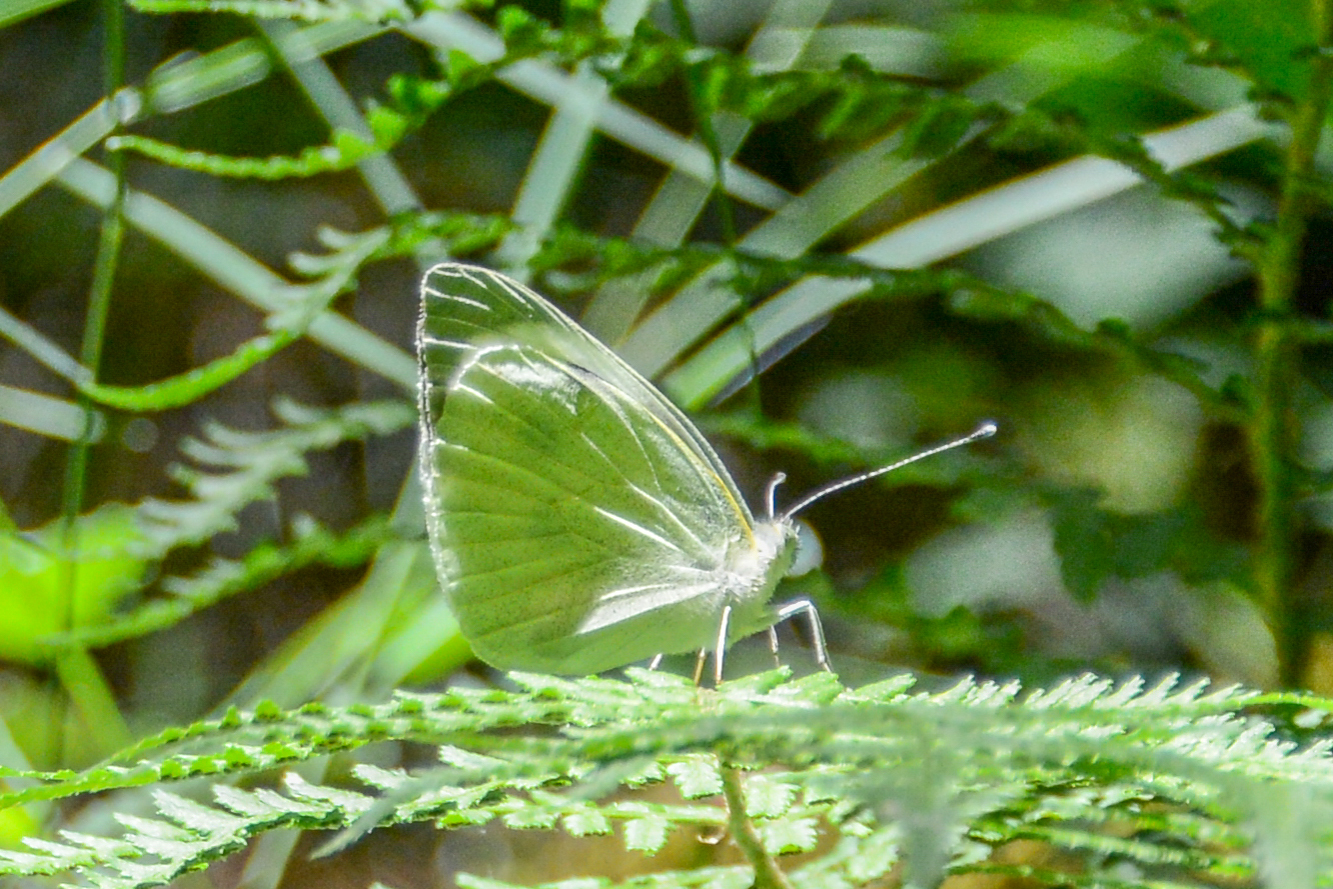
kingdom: Animalia
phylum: Arthropoda
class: Insecta
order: Lepidoptera
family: Pieridae
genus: Pieris
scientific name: Pieris brassicae
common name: Large white
